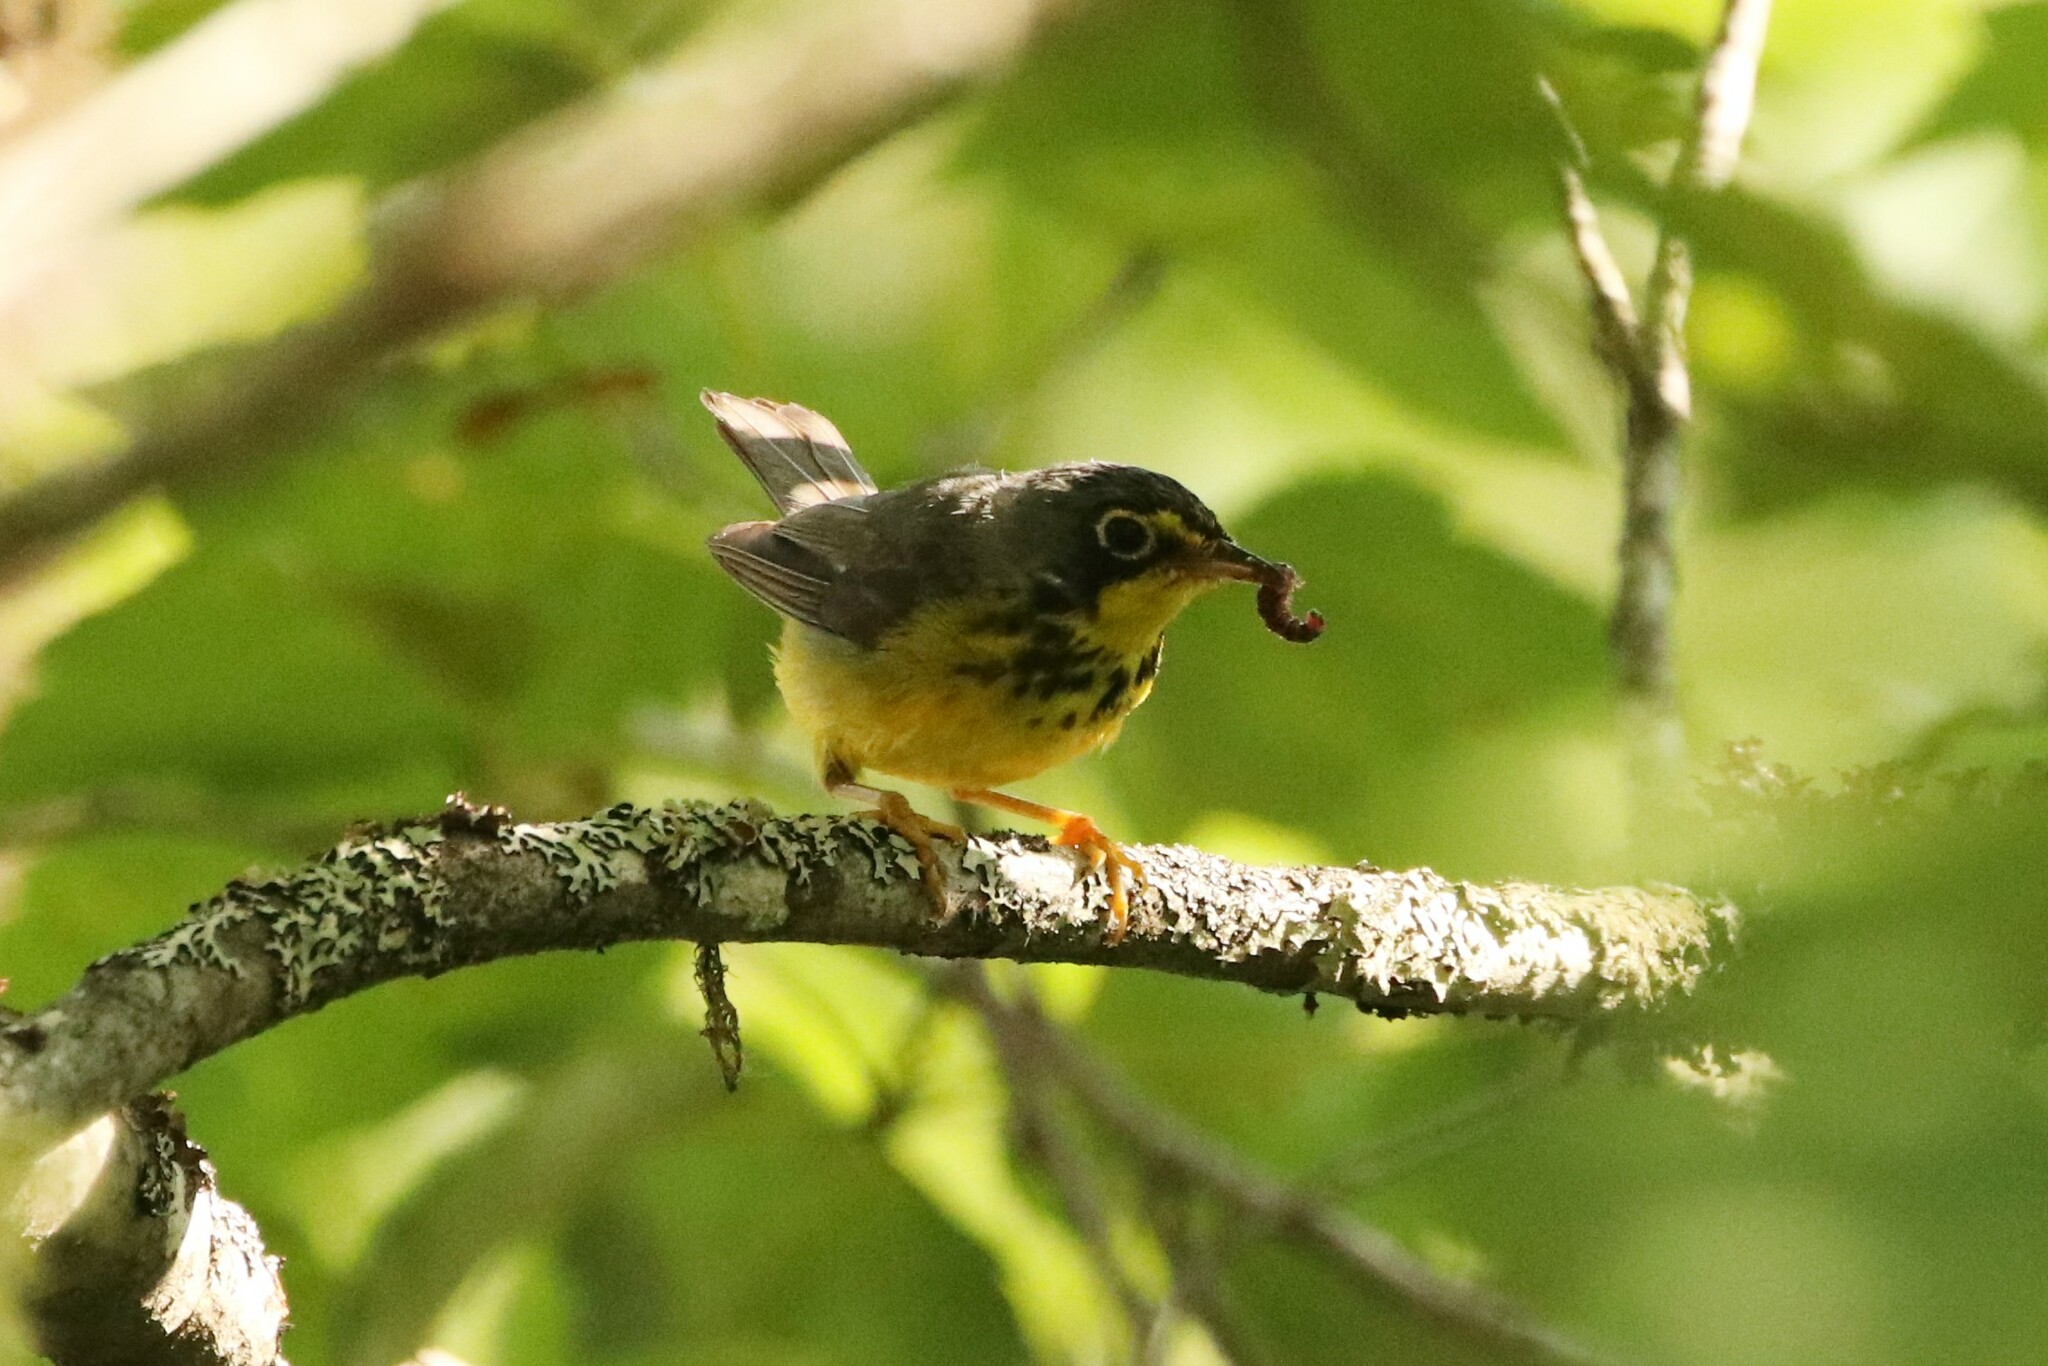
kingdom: Animalia
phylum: Chordata
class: Aves
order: Passeriformes
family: Parulidae
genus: Cardellina
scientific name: Cardellina canadensis
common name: Canada warbler
